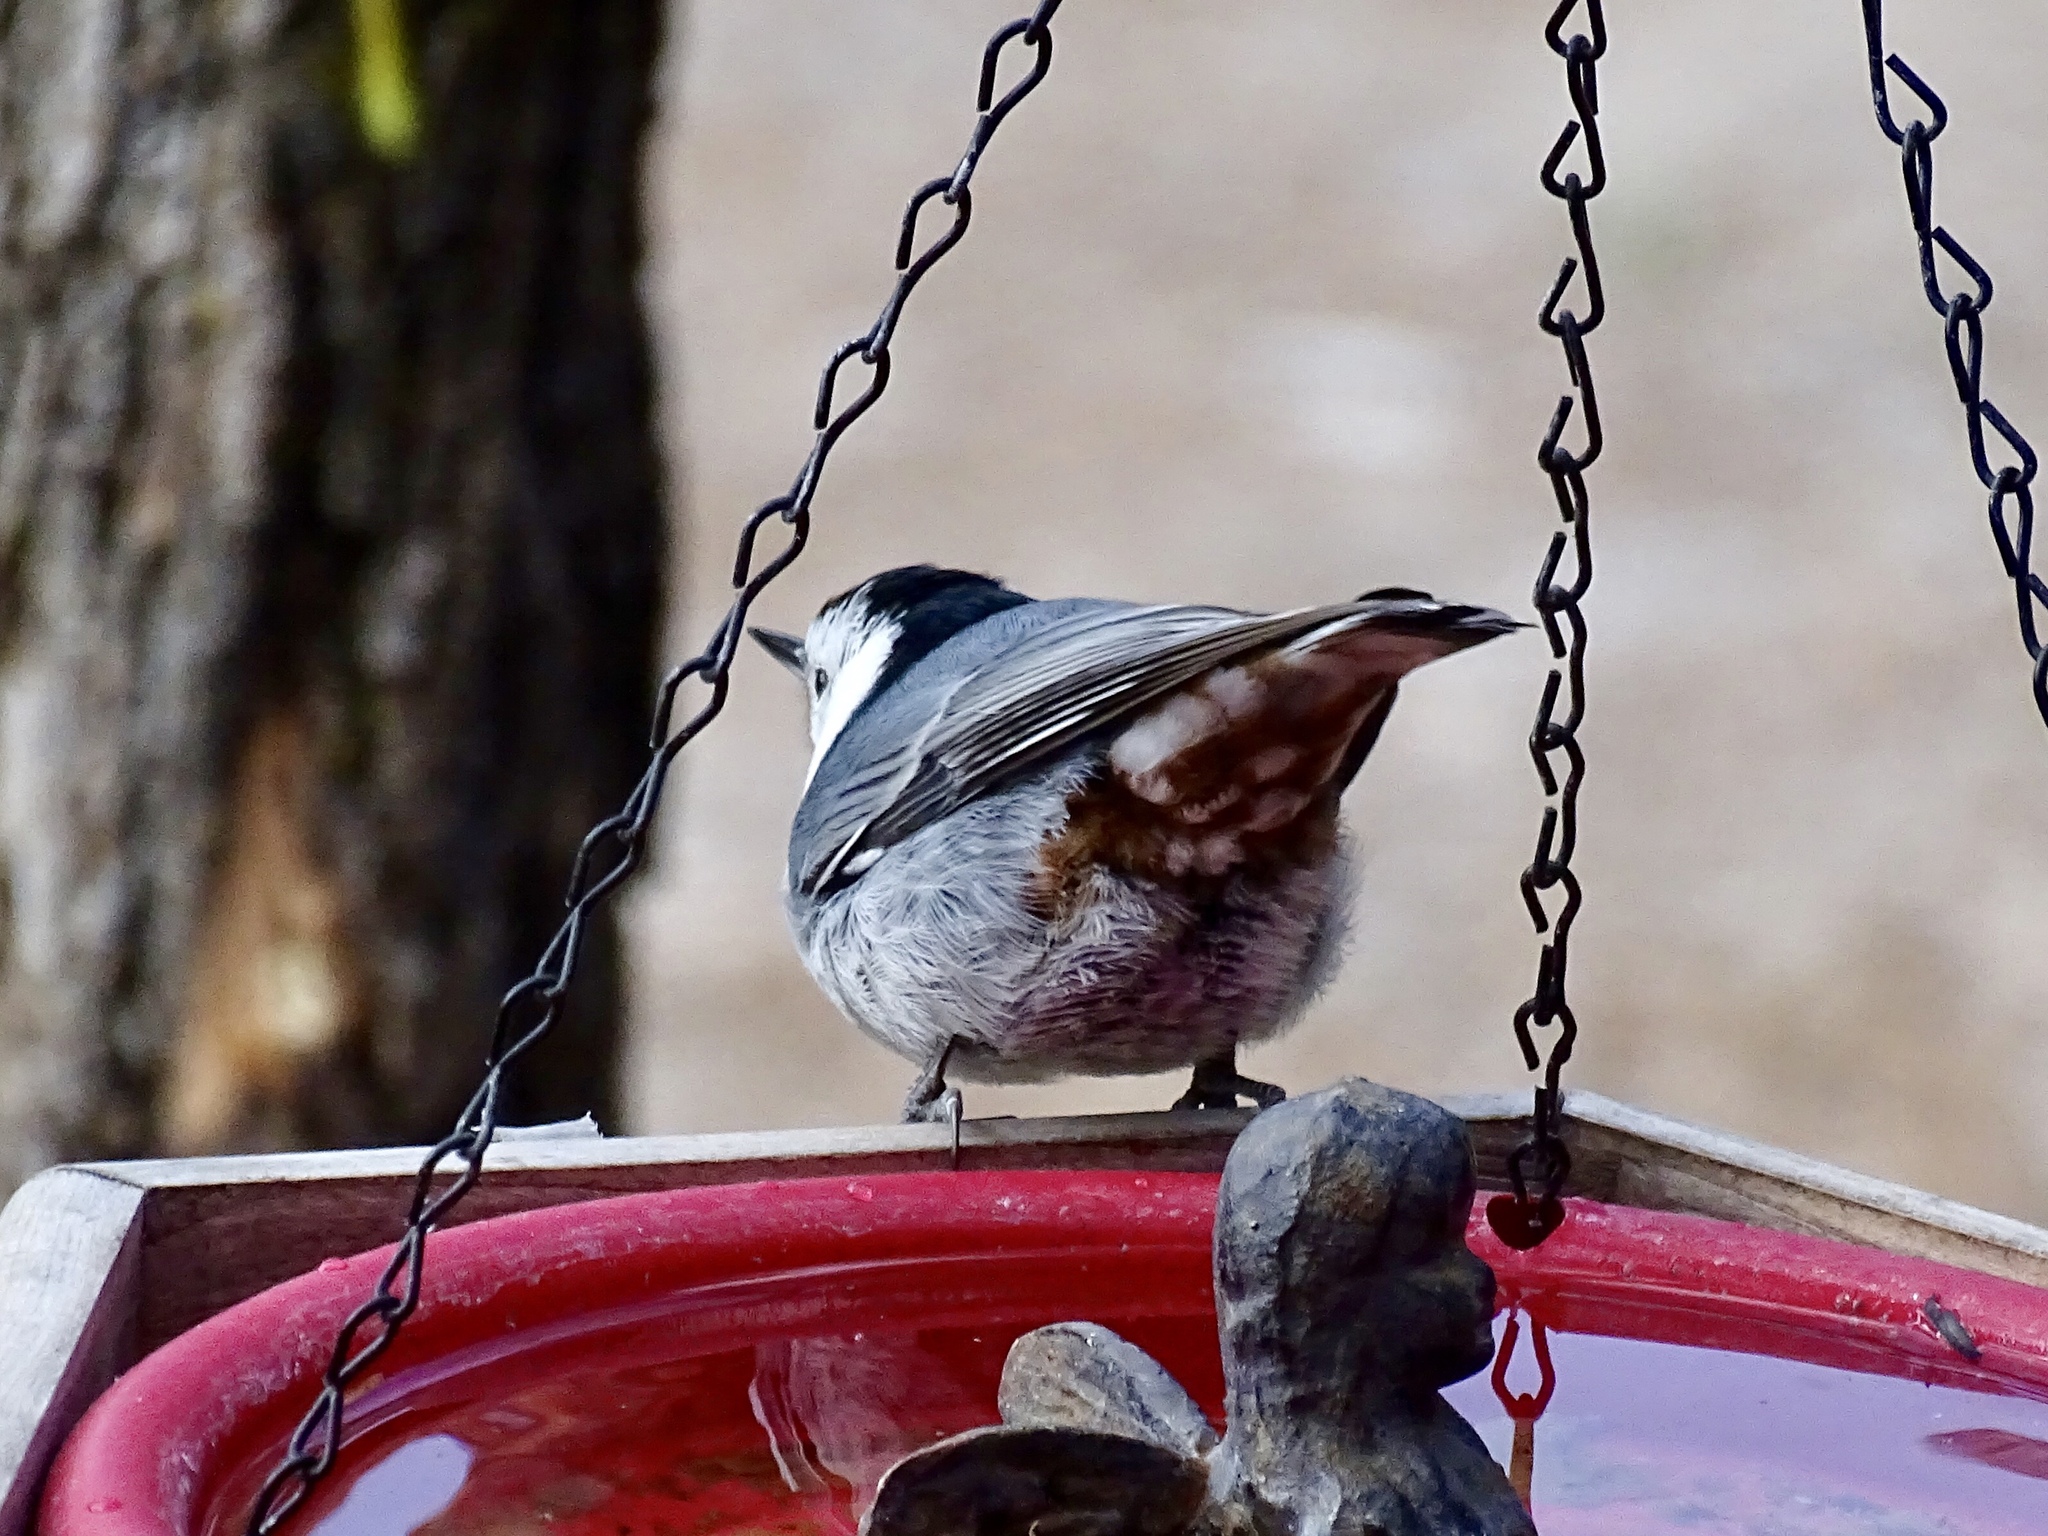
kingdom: Animalia
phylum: Chordata
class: Aves
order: Passeriformes
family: Sittidae
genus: Sitta
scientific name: Sitta carolinensis
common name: White-breasted nuthatch
